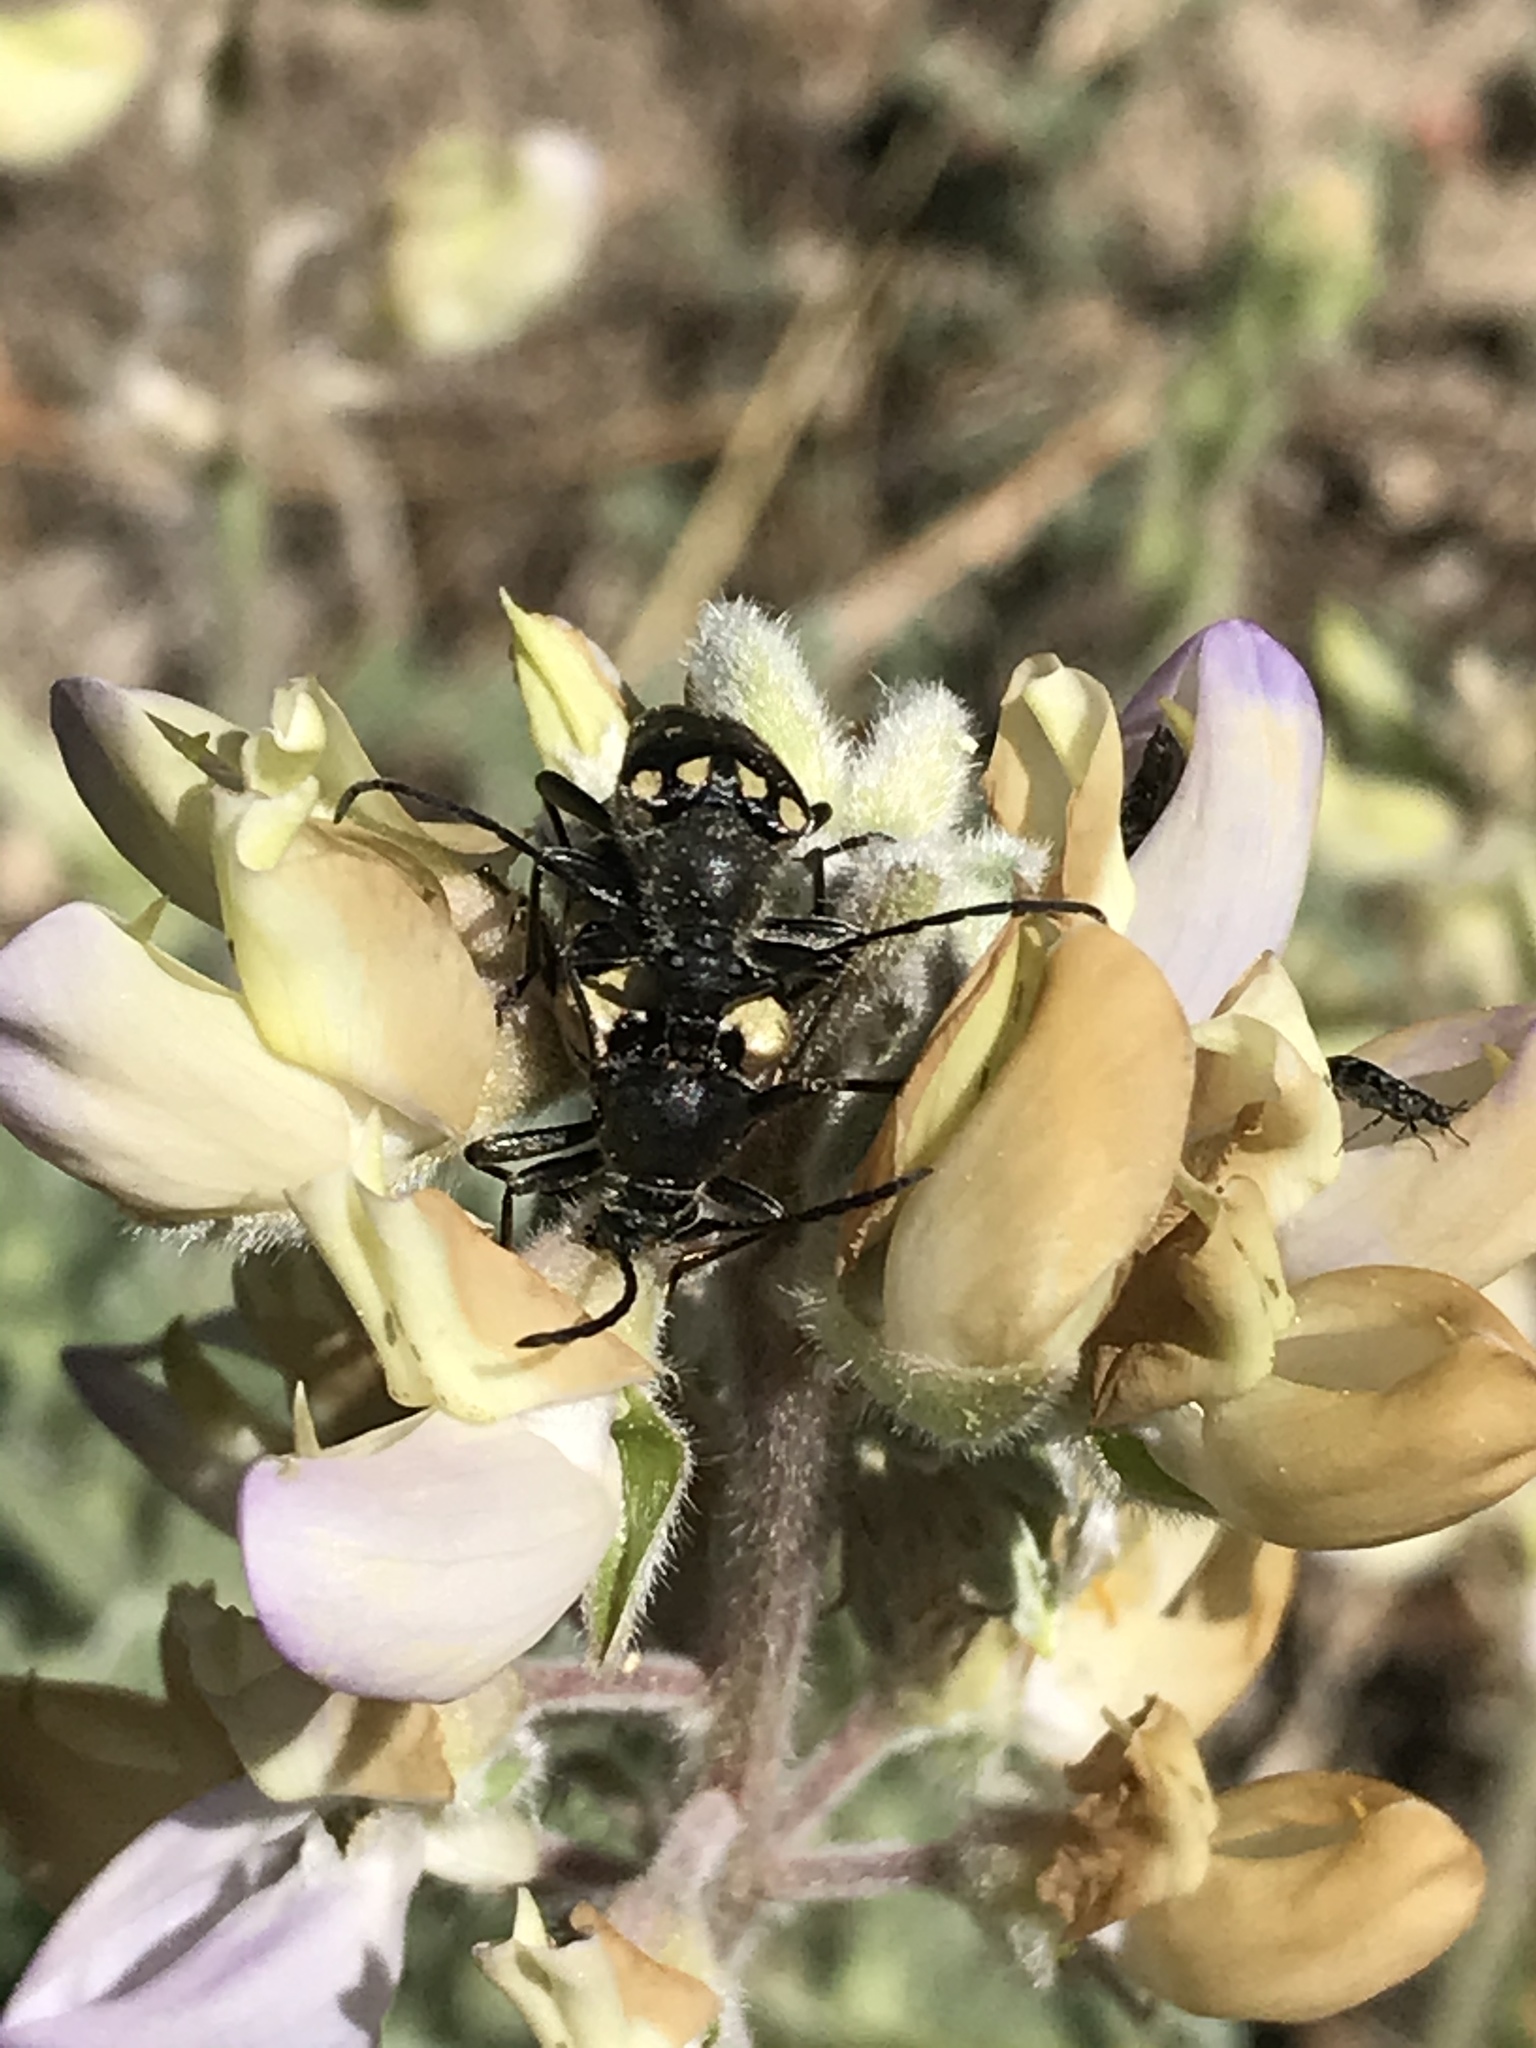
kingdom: Animalia
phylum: Arthropoda
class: Insecta
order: Coleoptera
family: Cerambycidae
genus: Judolia
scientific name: Judolia instabilis
